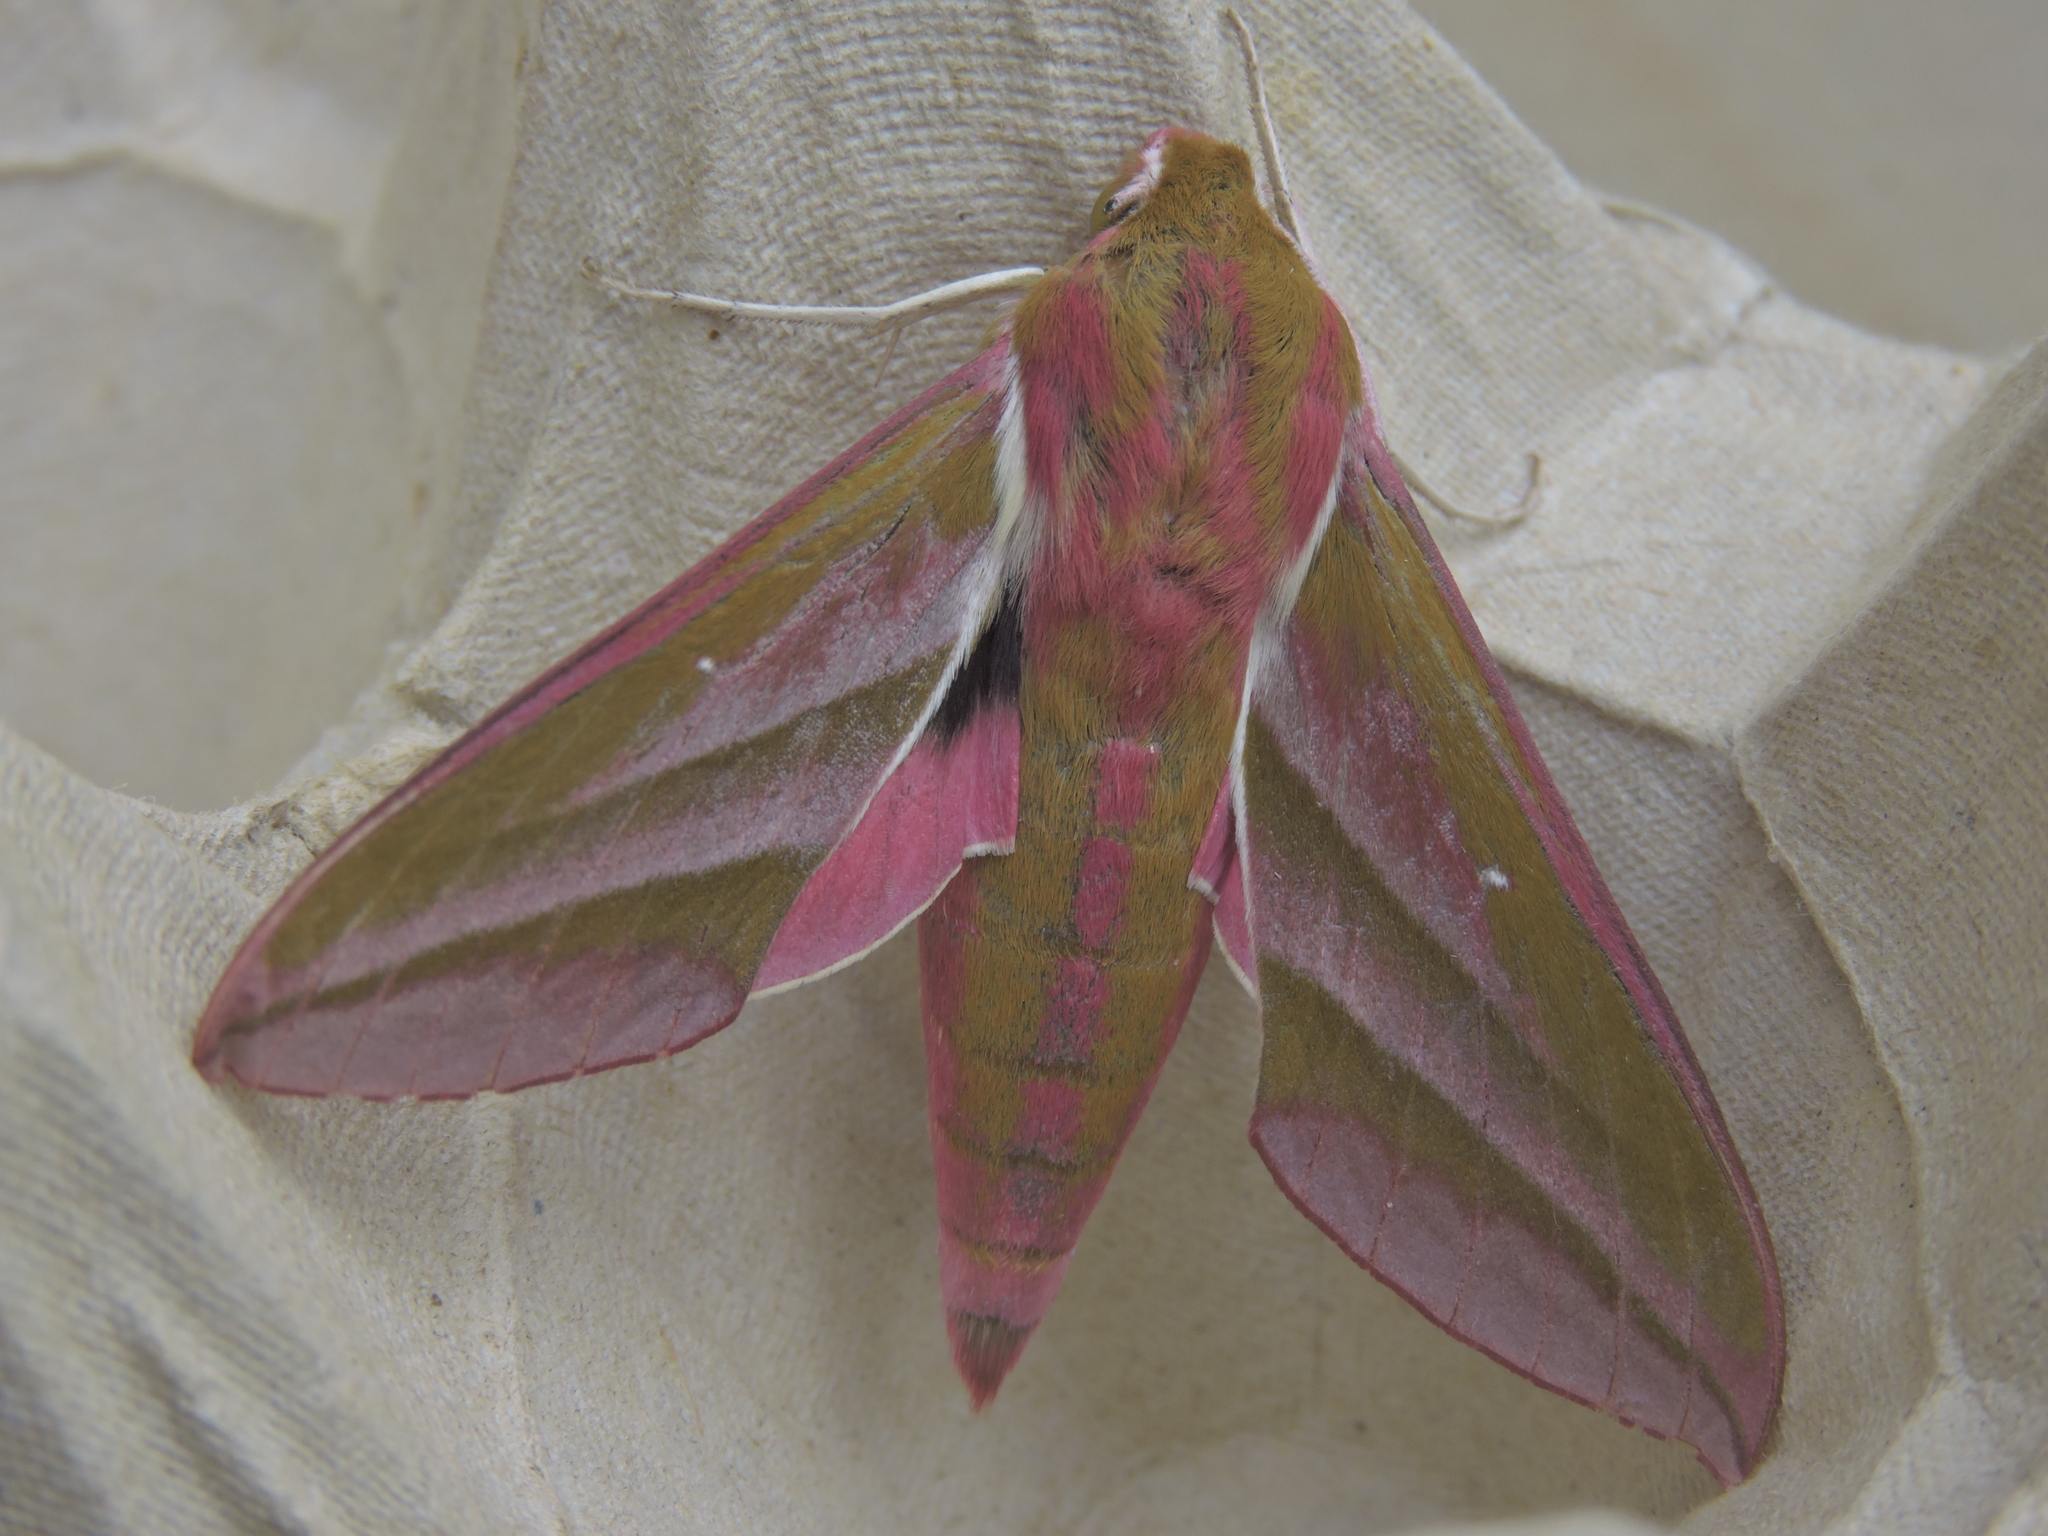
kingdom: Animalia
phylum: Arthropoda
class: Insecta
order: Lepidoptera
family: Sphingidae
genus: Deilephila
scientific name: Deilephila elpenor
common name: Elephant hawk-moth
